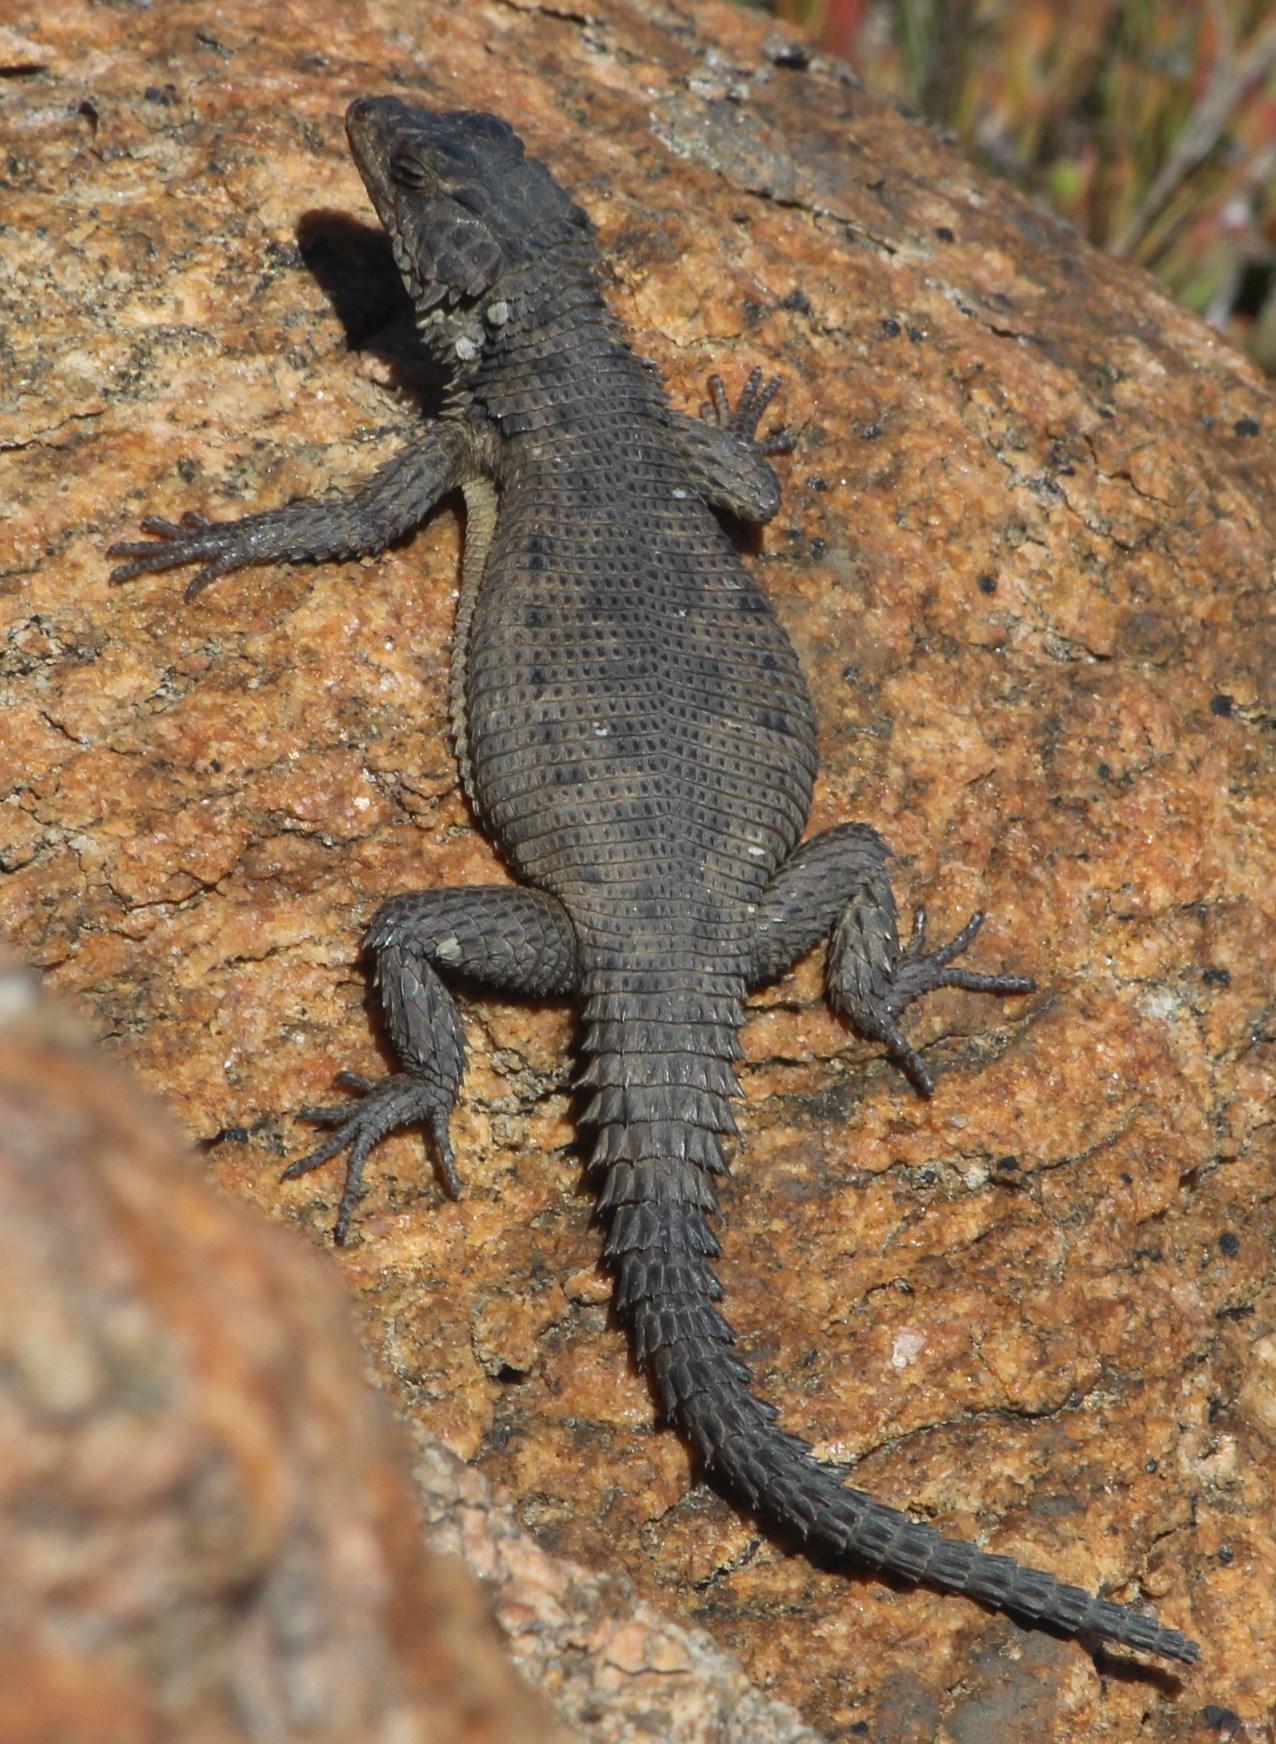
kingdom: Animalia
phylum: Chordata
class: Squamata
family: Cordylidae
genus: Karusasaurus
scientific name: Karusasaurus polyzonus
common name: Karoo girdled lizard
